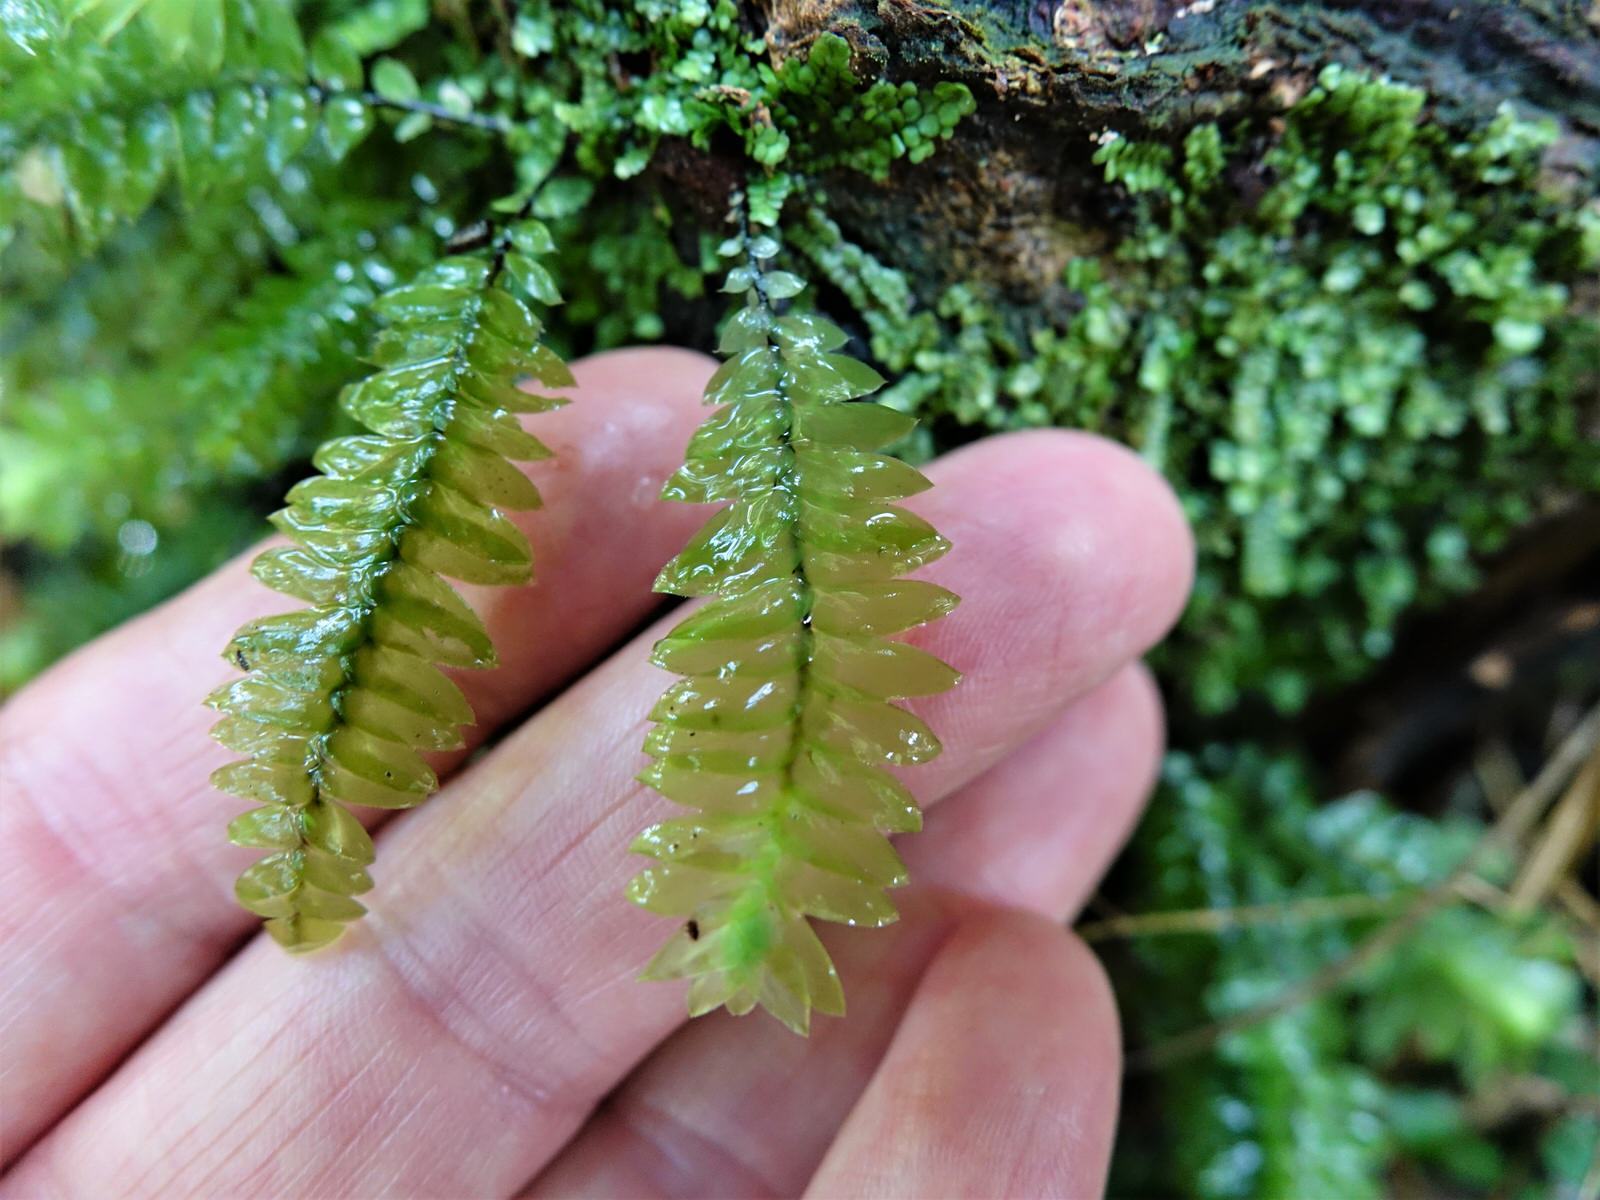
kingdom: Plantae
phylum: Bryophyta
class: Bryopsida
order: Hypopterygiales
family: Hypopterygiaceae
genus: Cyathophorum
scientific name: Cyathophorum bulbosum
